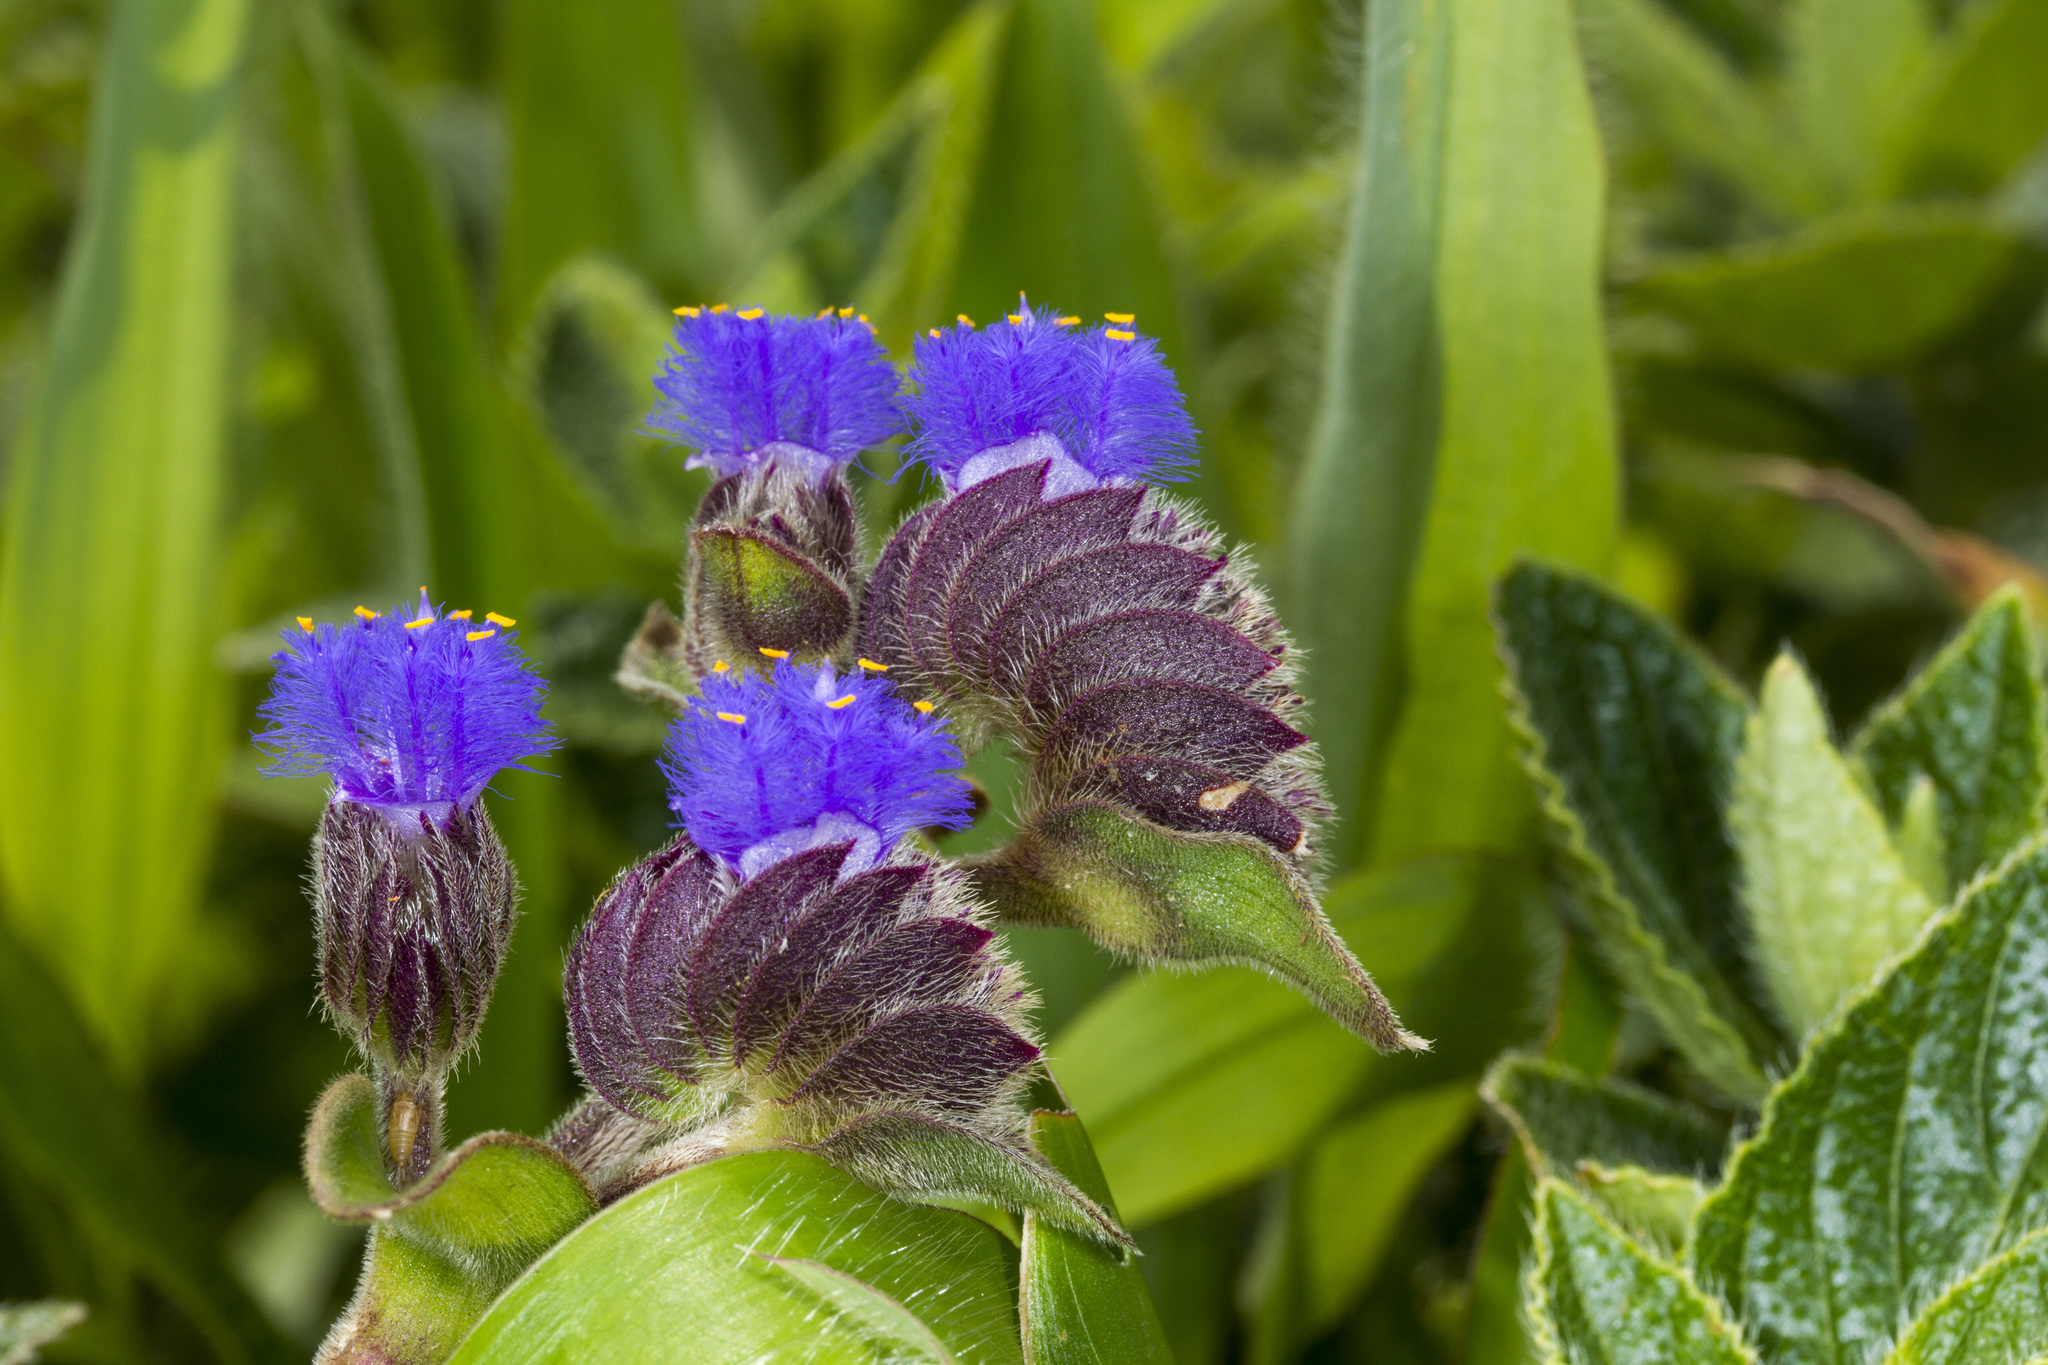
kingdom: Plantae
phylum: Tracheophyta
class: Liliopsida
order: Commelinales
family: Commelinaceae
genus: Cyanotis
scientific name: Cyanotis tuberosa
